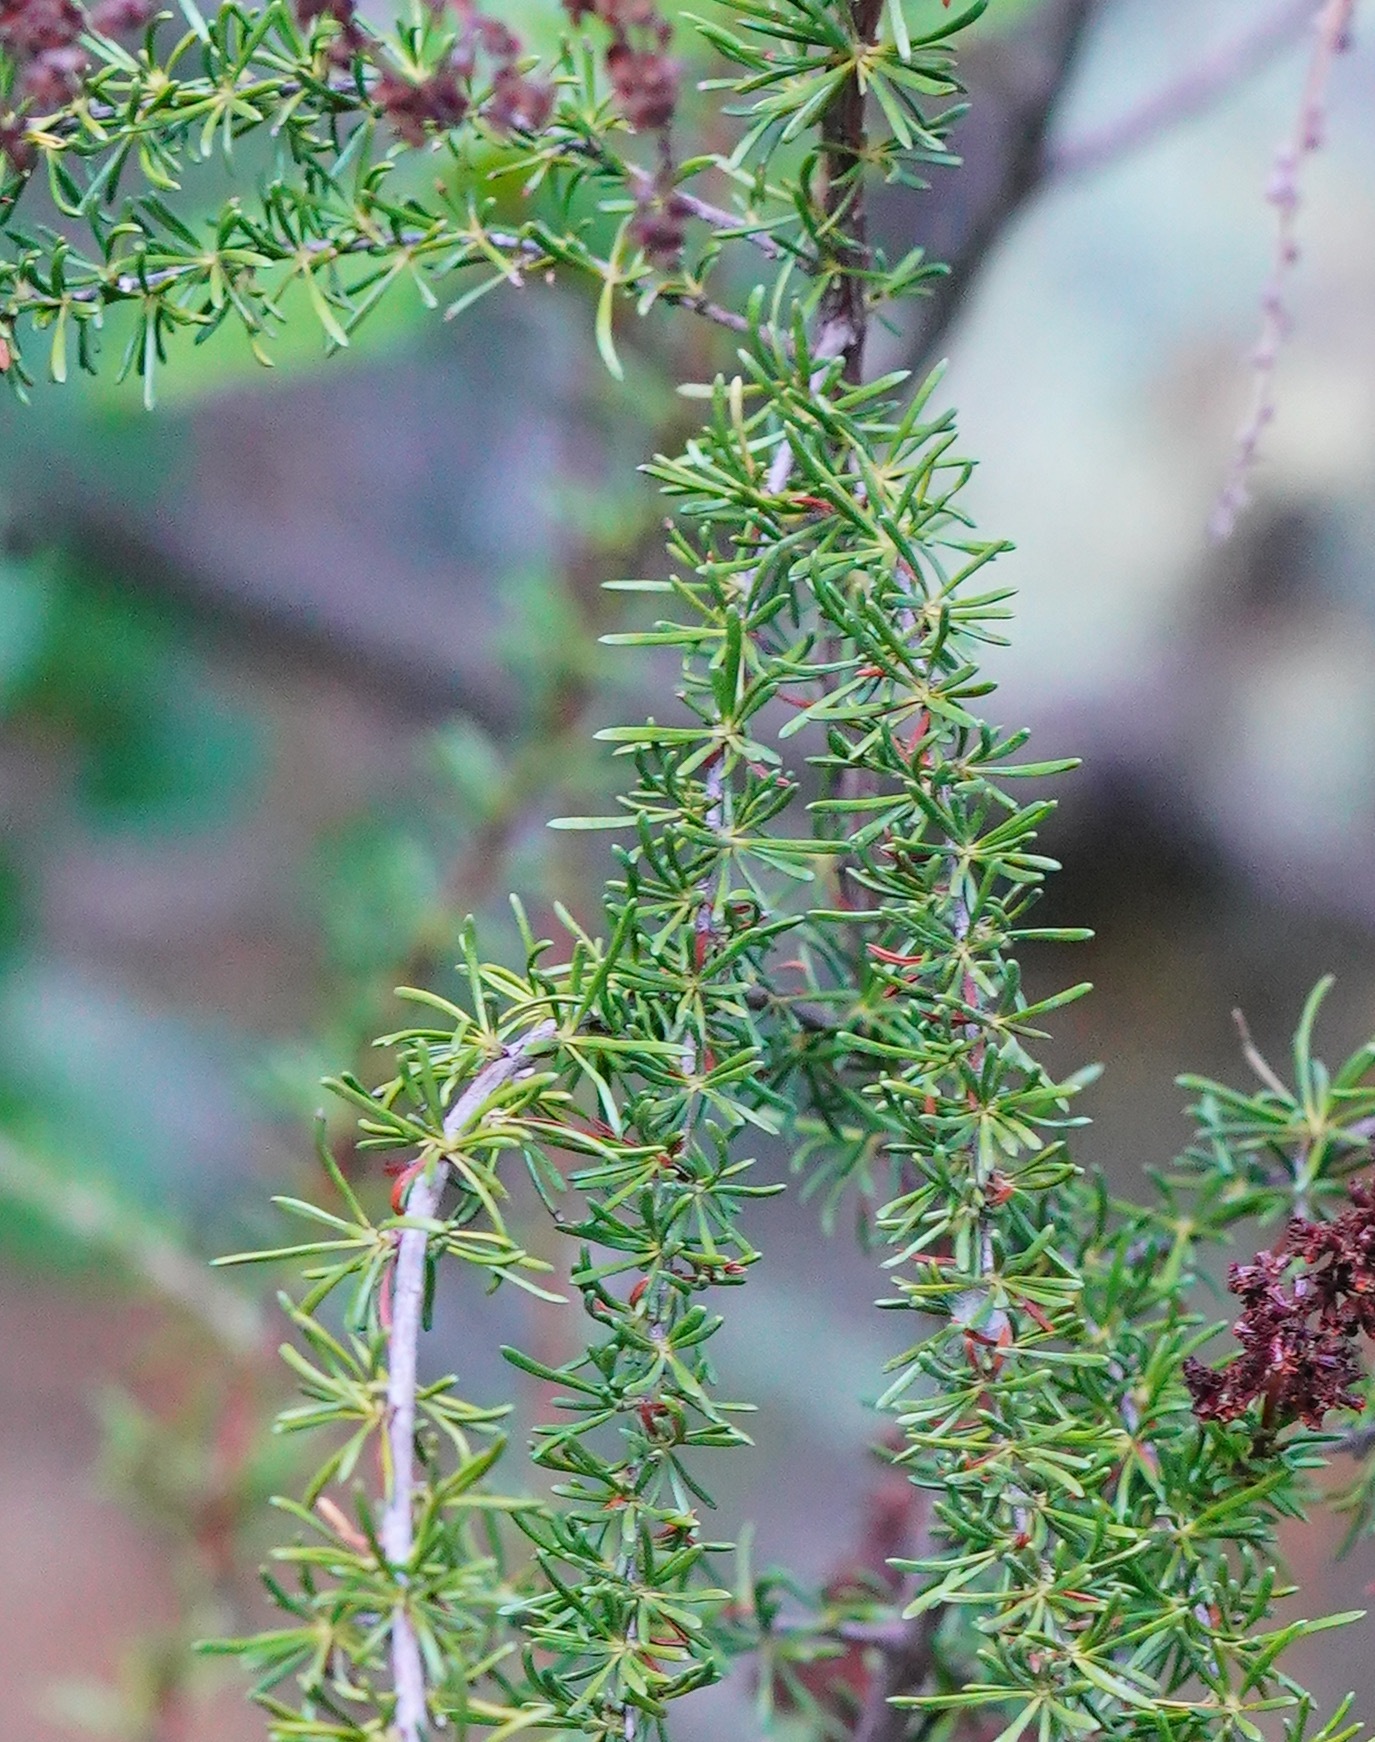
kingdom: Plantae
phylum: Tracheophyta
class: Magnoliopsida
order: Rosales
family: Rosaceae
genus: Adenostoma
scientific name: Adenostoma fasciculatum
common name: Chamise
